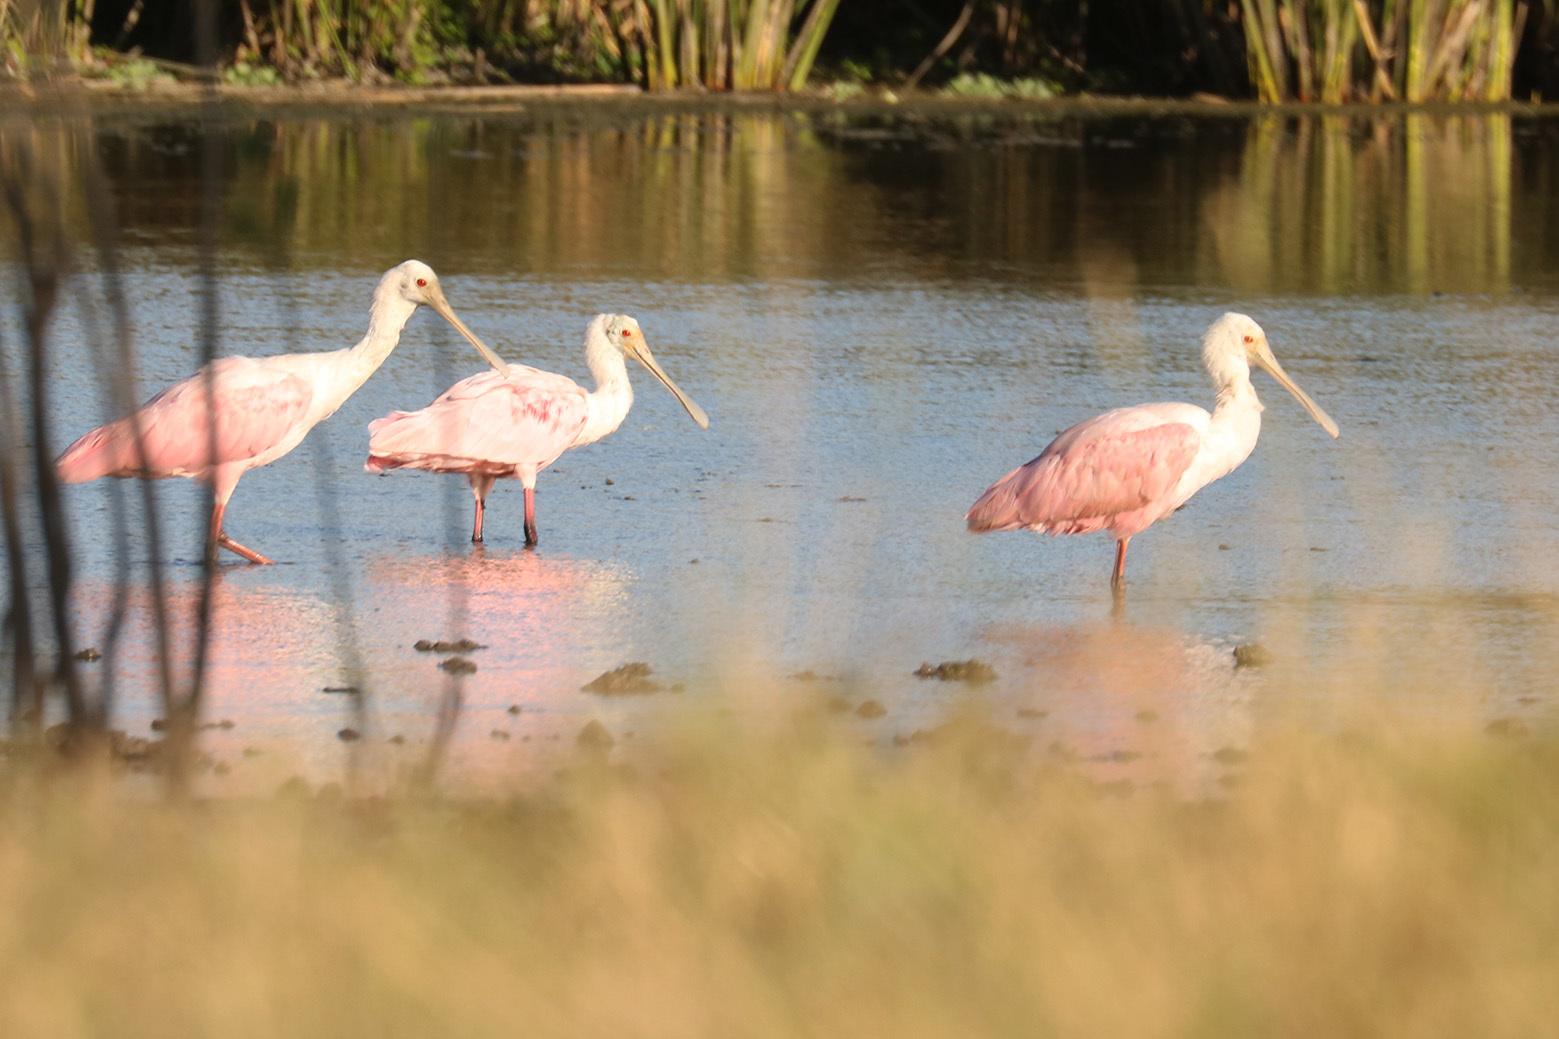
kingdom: Animalia
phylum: Chordata
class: Aves
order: Pelecaniformes
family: Threskiornithidae
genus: Platalea
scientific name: Platalea ajaja
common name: Roseate spoonbill
